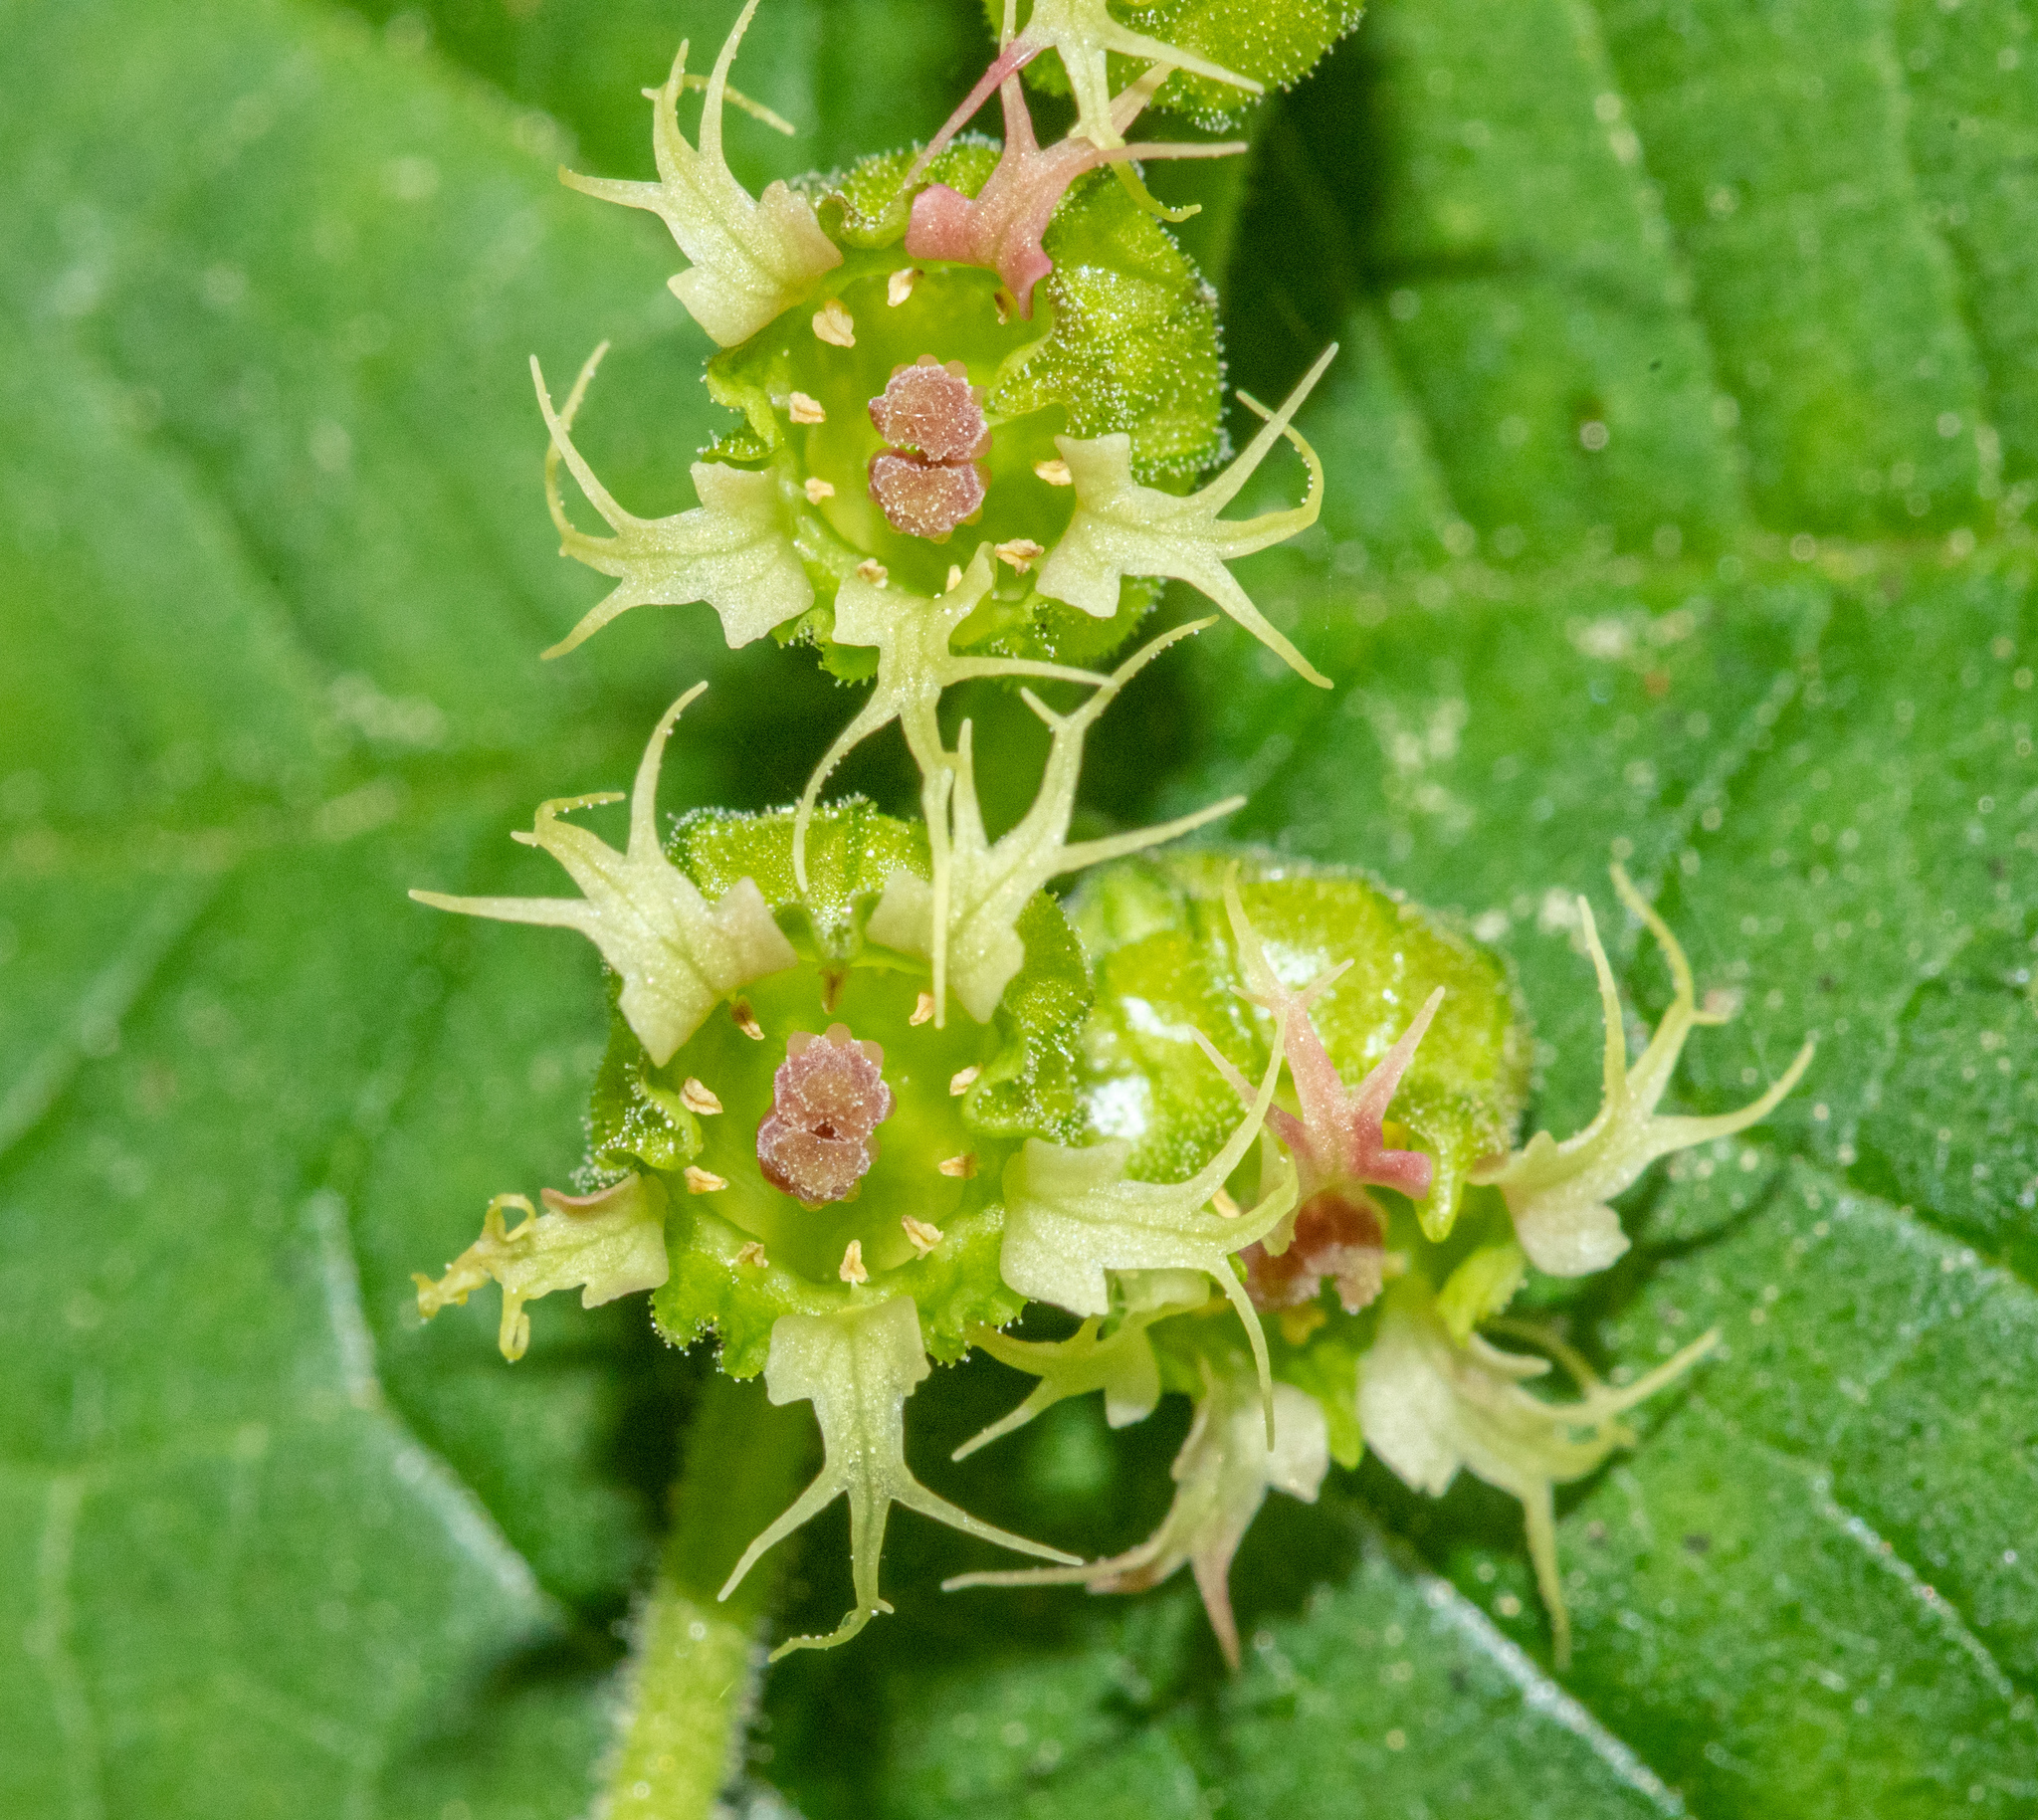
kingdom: Plantae
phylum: Tracheophyta
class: Magnoliopsida
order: Saxifragales
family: Saxifragaceae
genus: Tellima
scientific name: Tellima grandiflora
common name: Fringecups
